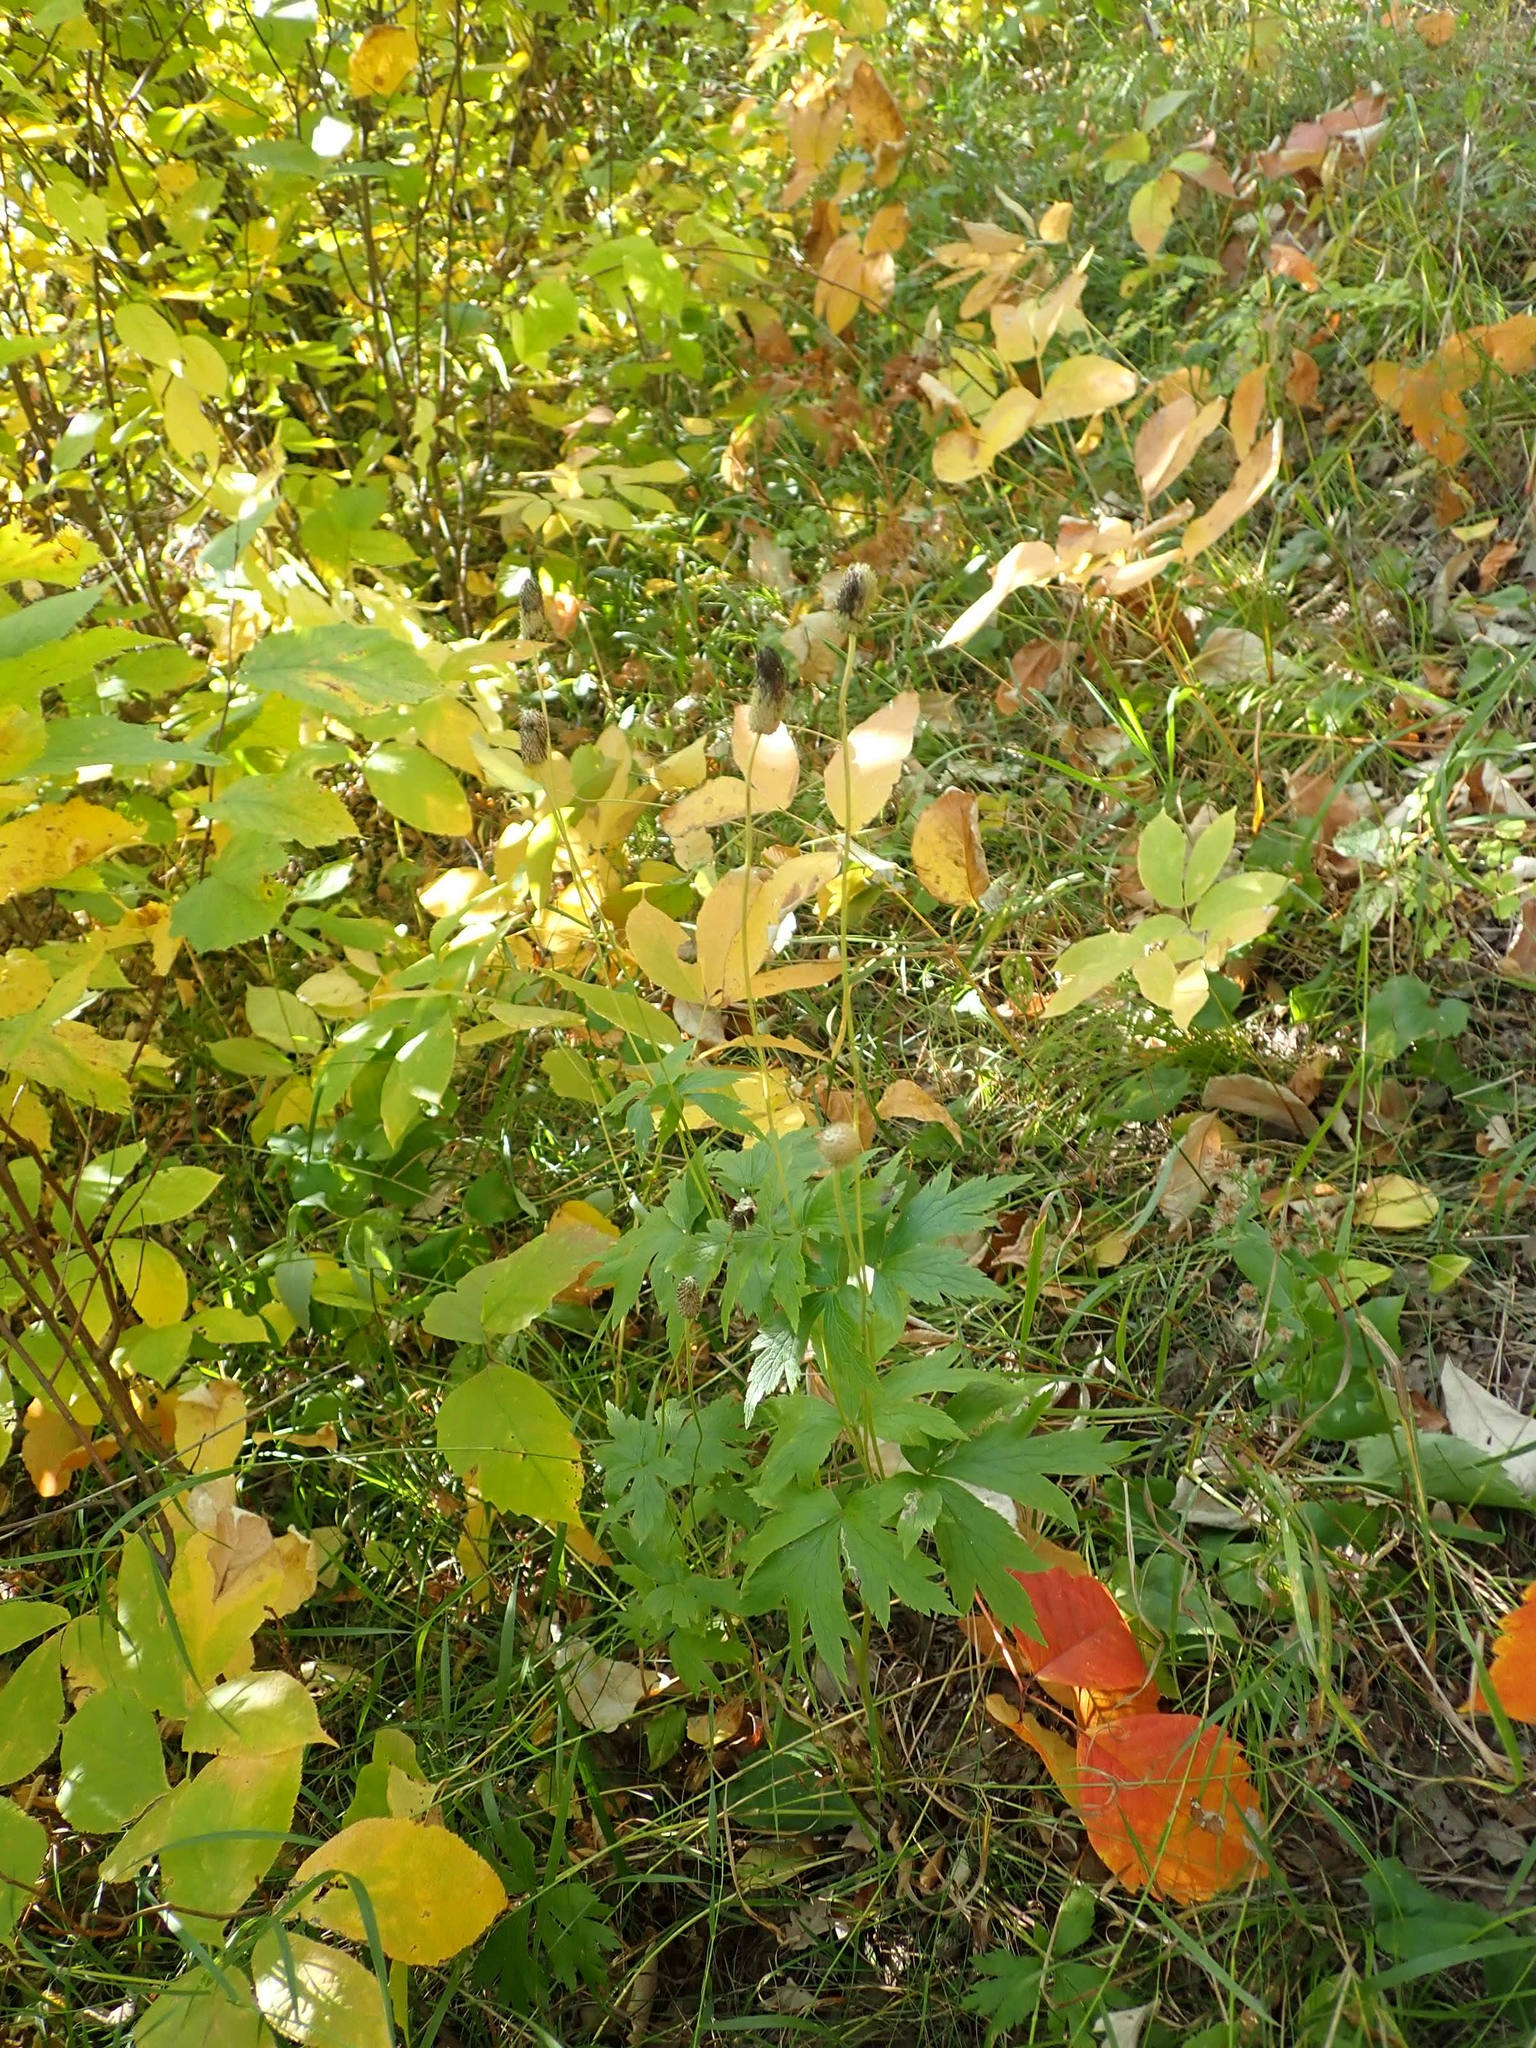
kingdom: Plantae
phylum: Tracheophyta
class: Magnoliopsida
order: Ranunculales
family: Ranunculaceae
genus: Anemone
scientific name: Anemone virginiana
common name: Tall anemone
